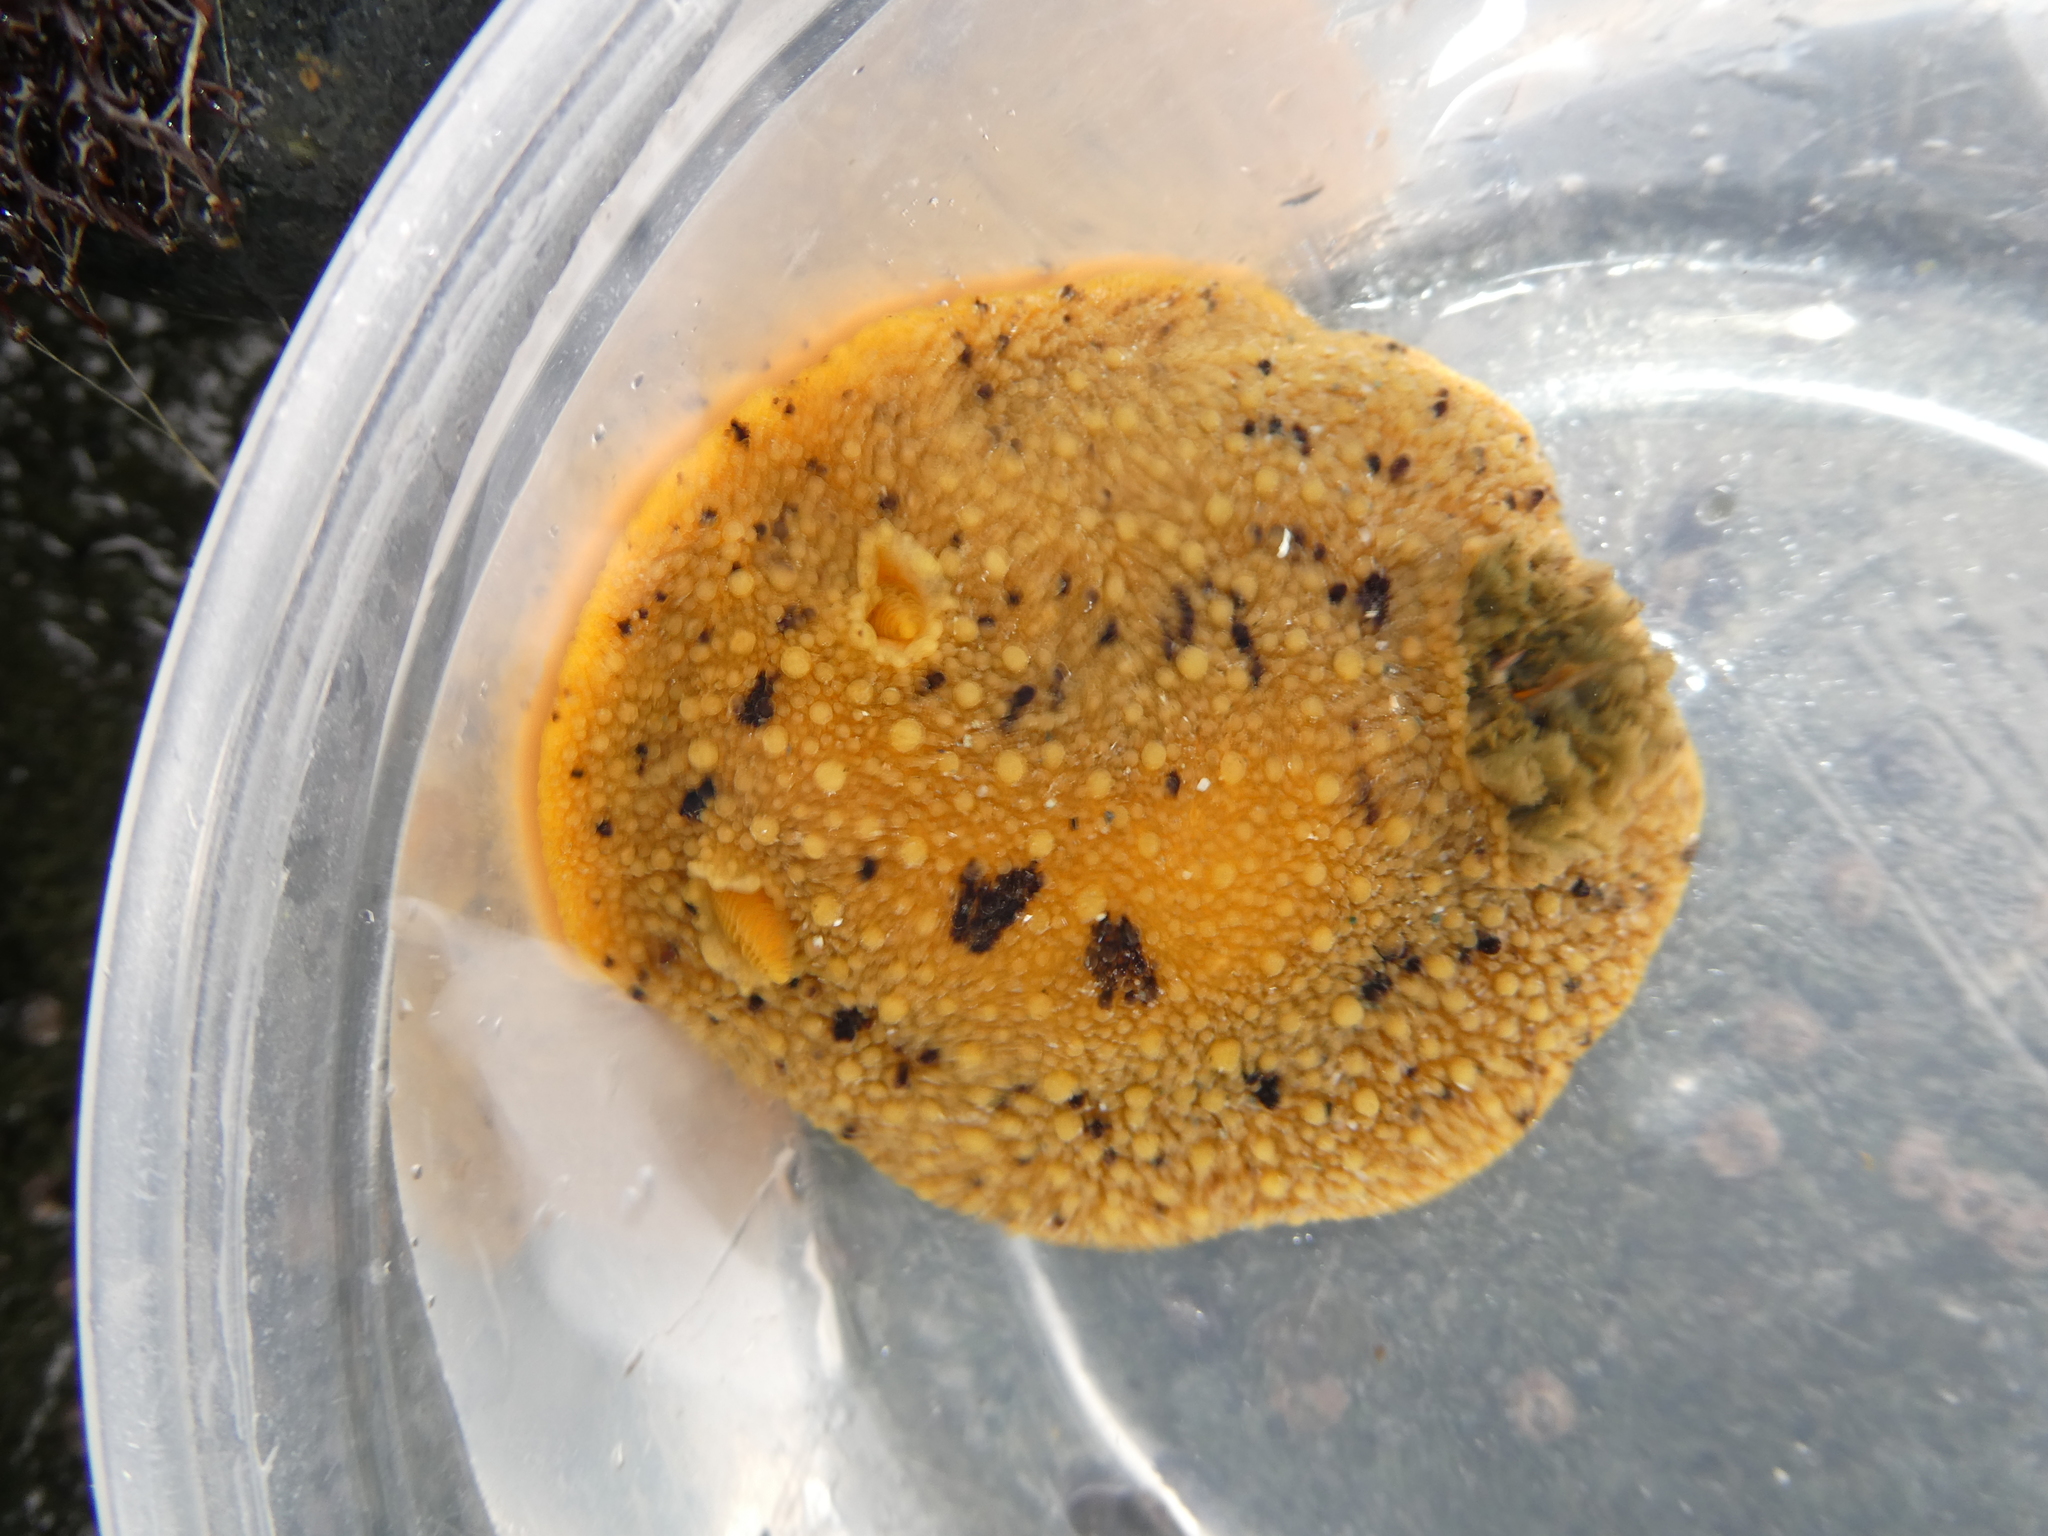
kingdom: Animalia
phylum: Mollusca
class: Gastropoda
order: Nudibranchia
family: Dorididae
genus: Doris
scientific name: Doris montereyensis
